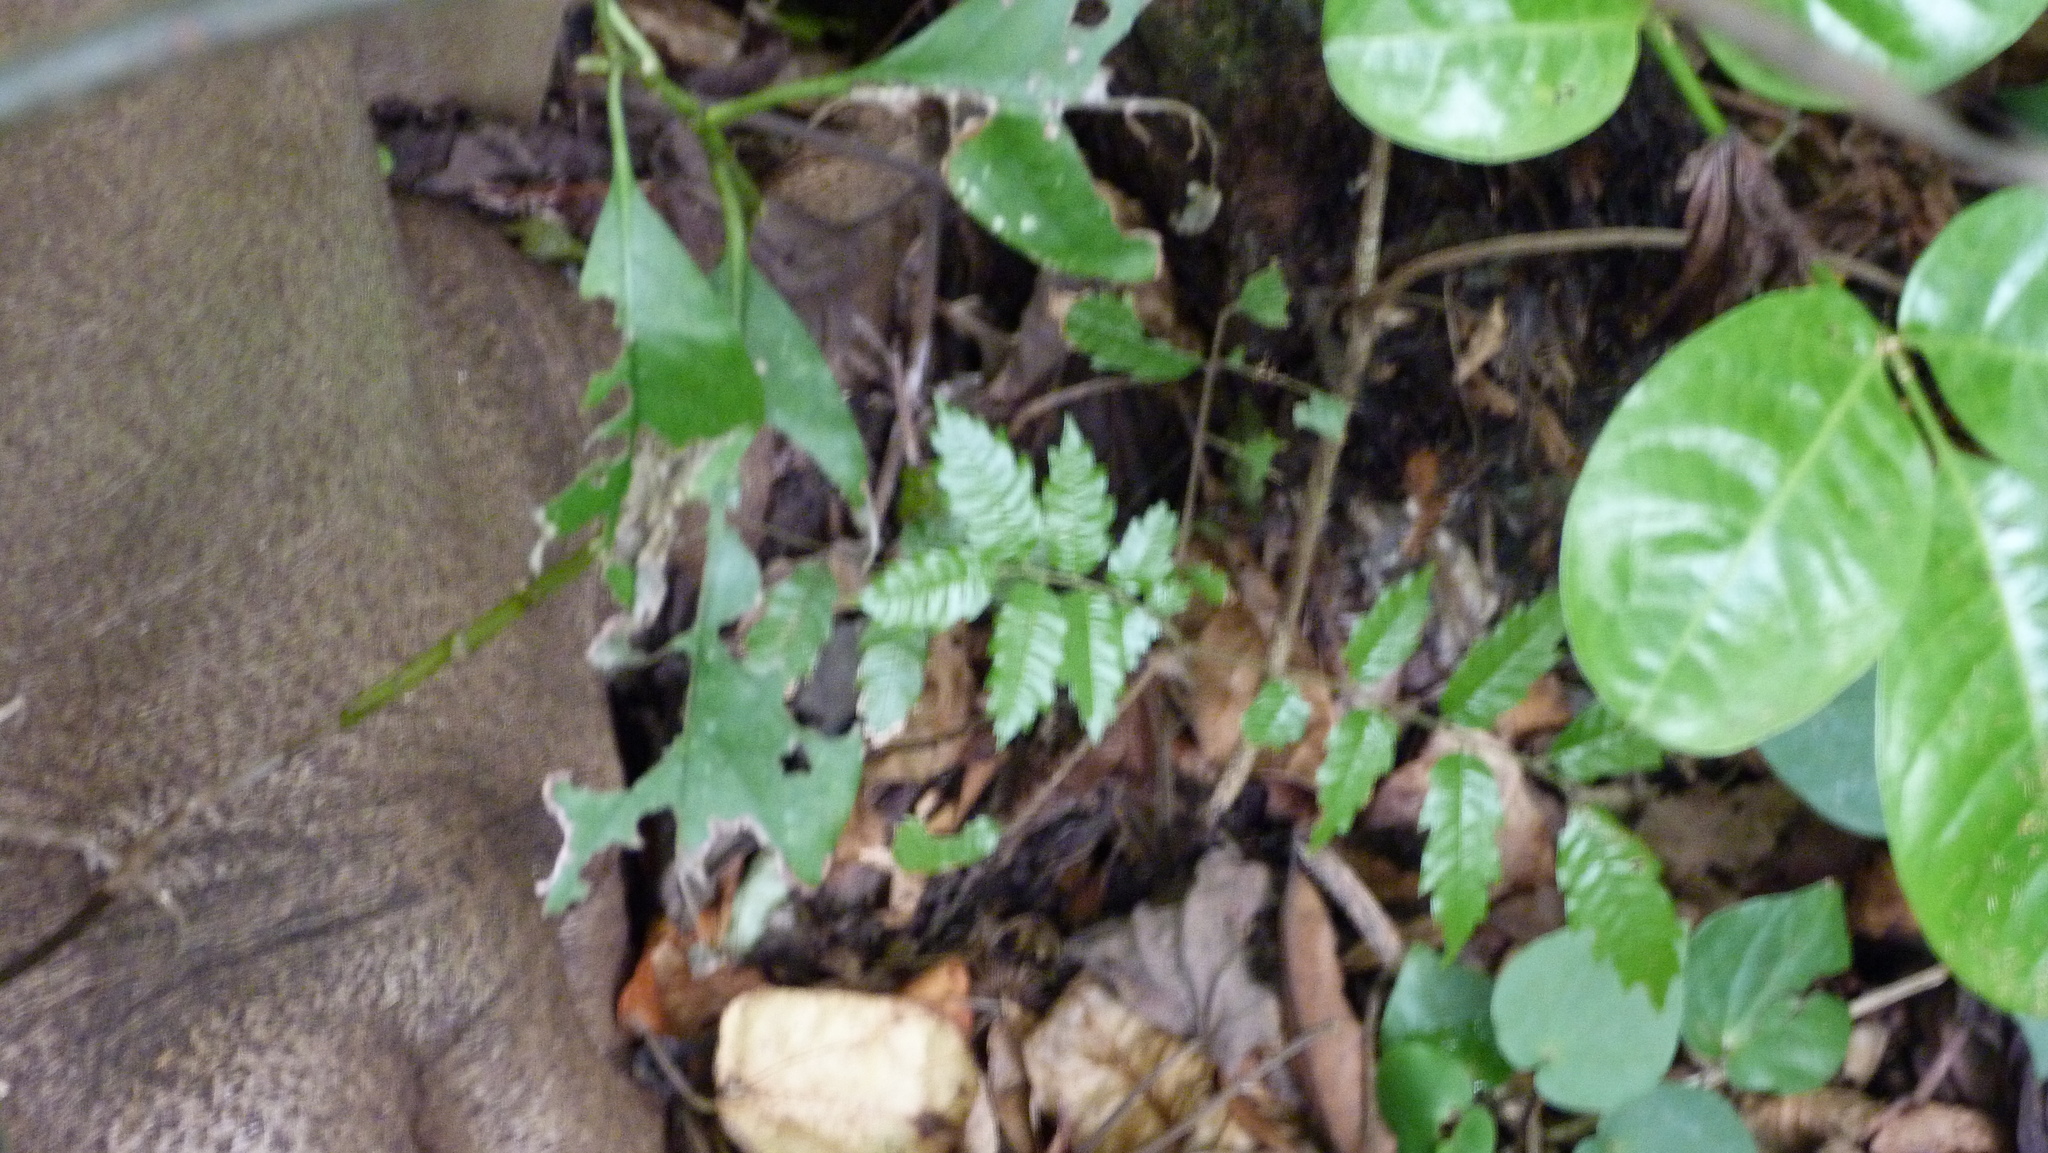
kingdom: Plantae
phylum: Tracheophyta
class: Magnoliopsida
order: Sapindales
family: Sapindaceae
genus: Alectryon
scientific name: Alectryon excelsus
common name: Three kings titoki
